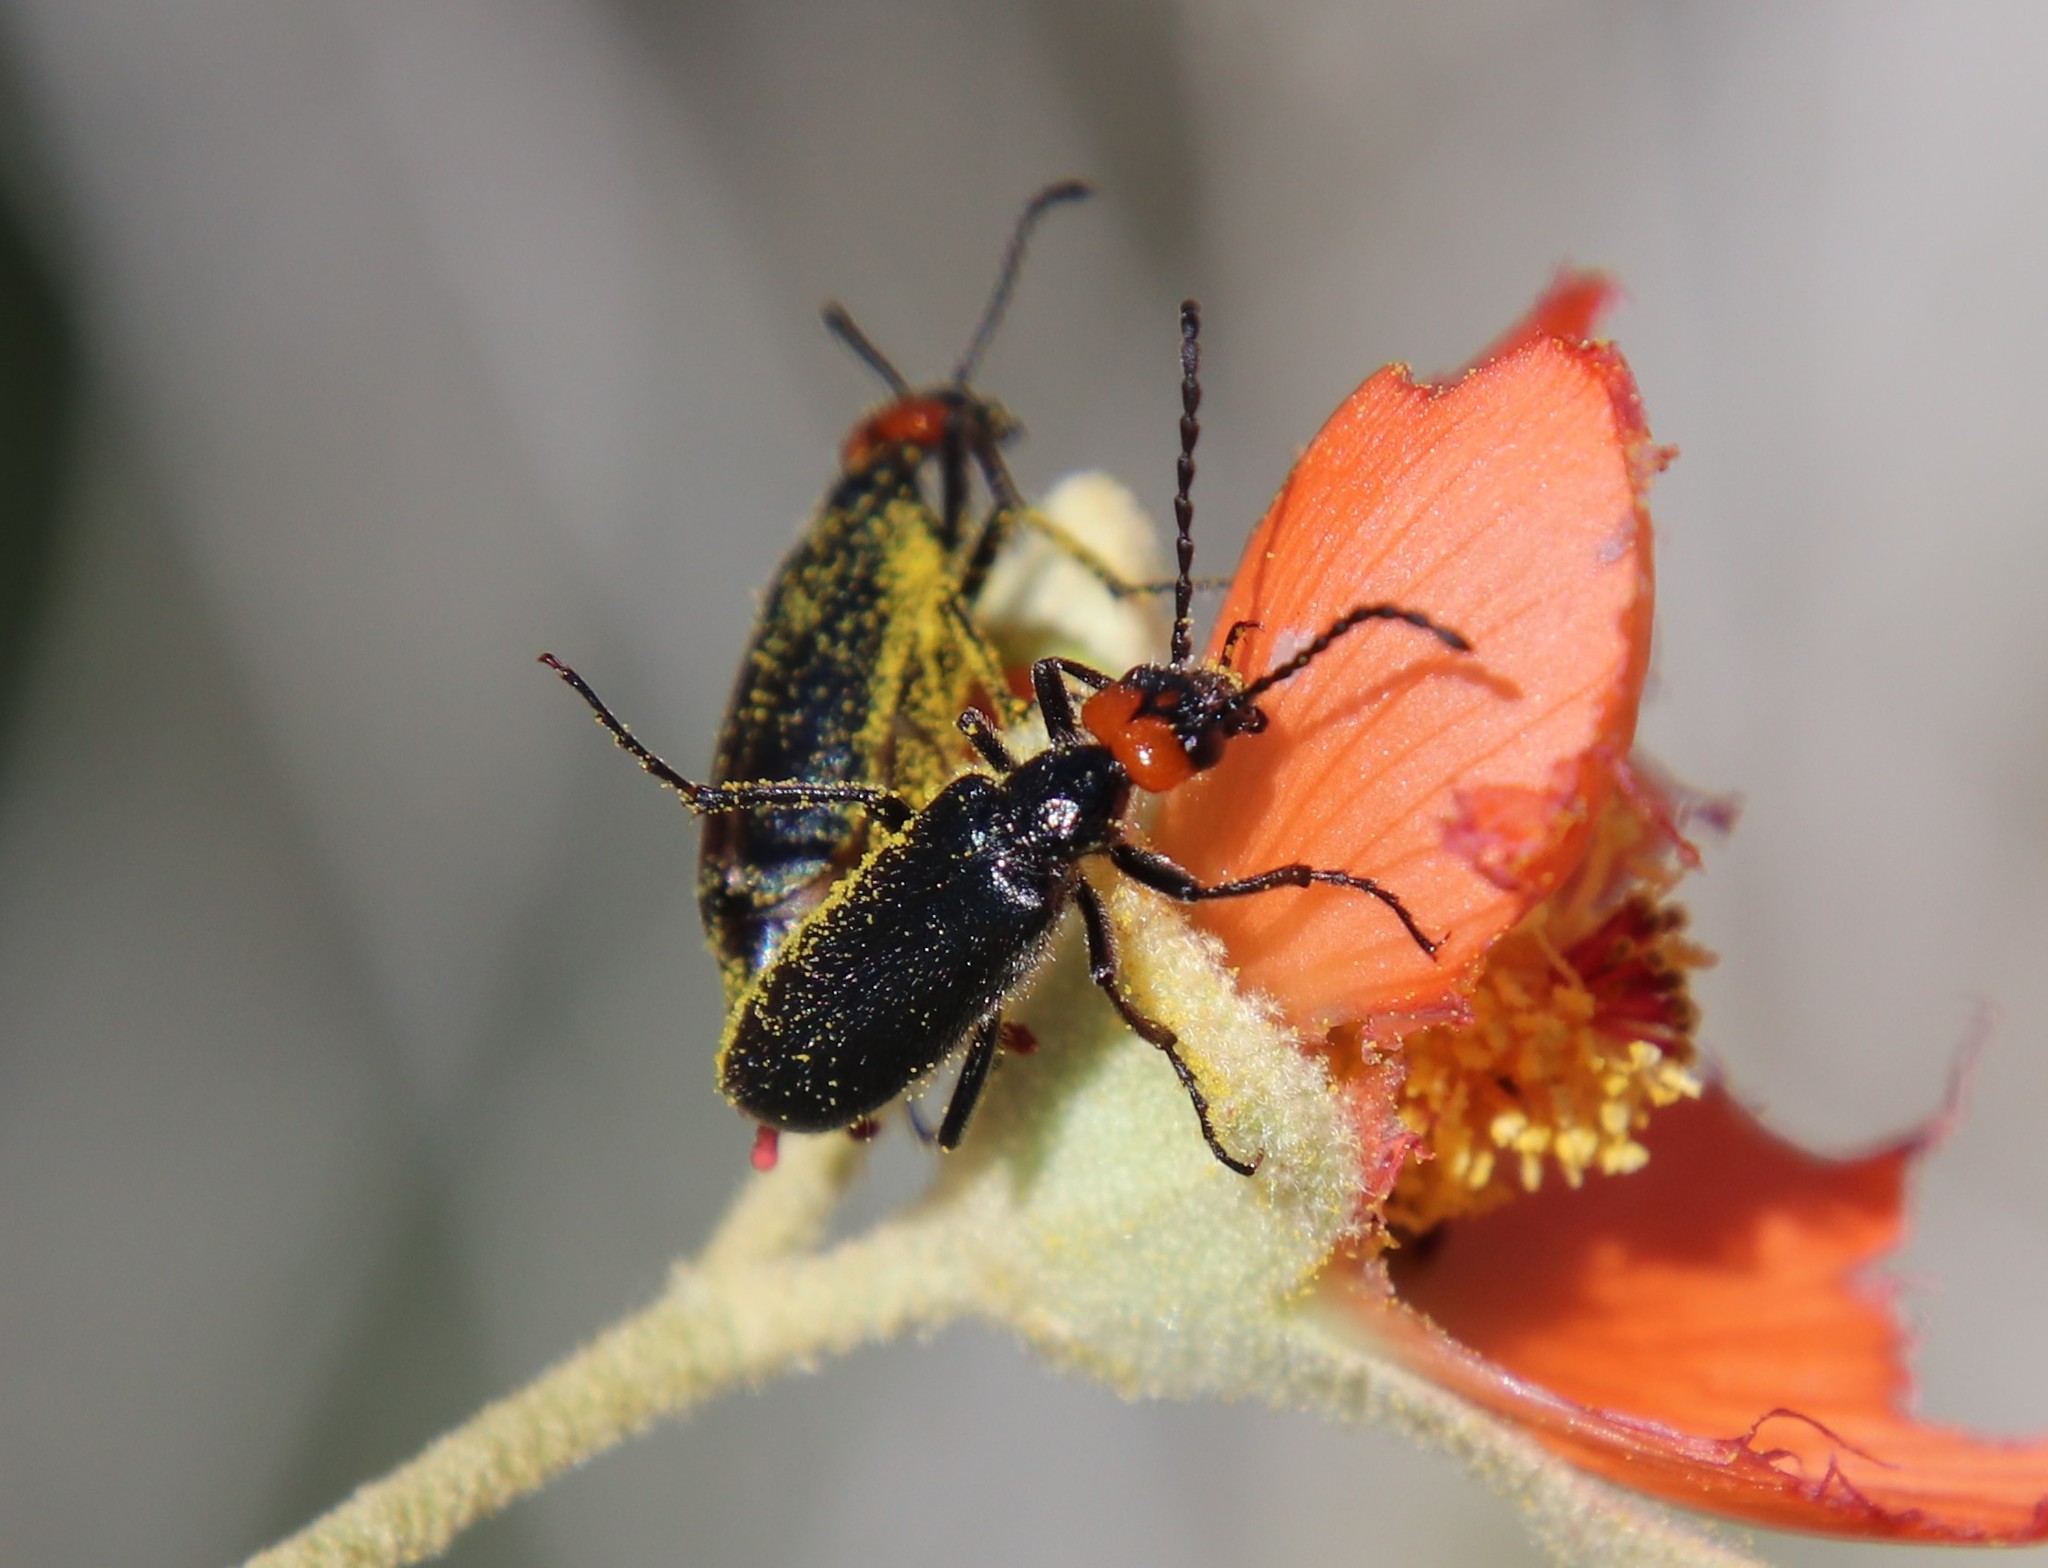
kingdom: Animalia
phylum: Arthropoda
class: Insecta
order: Coleoptera
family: Meloidae
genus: Lytta
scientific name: Lytta auriculata
